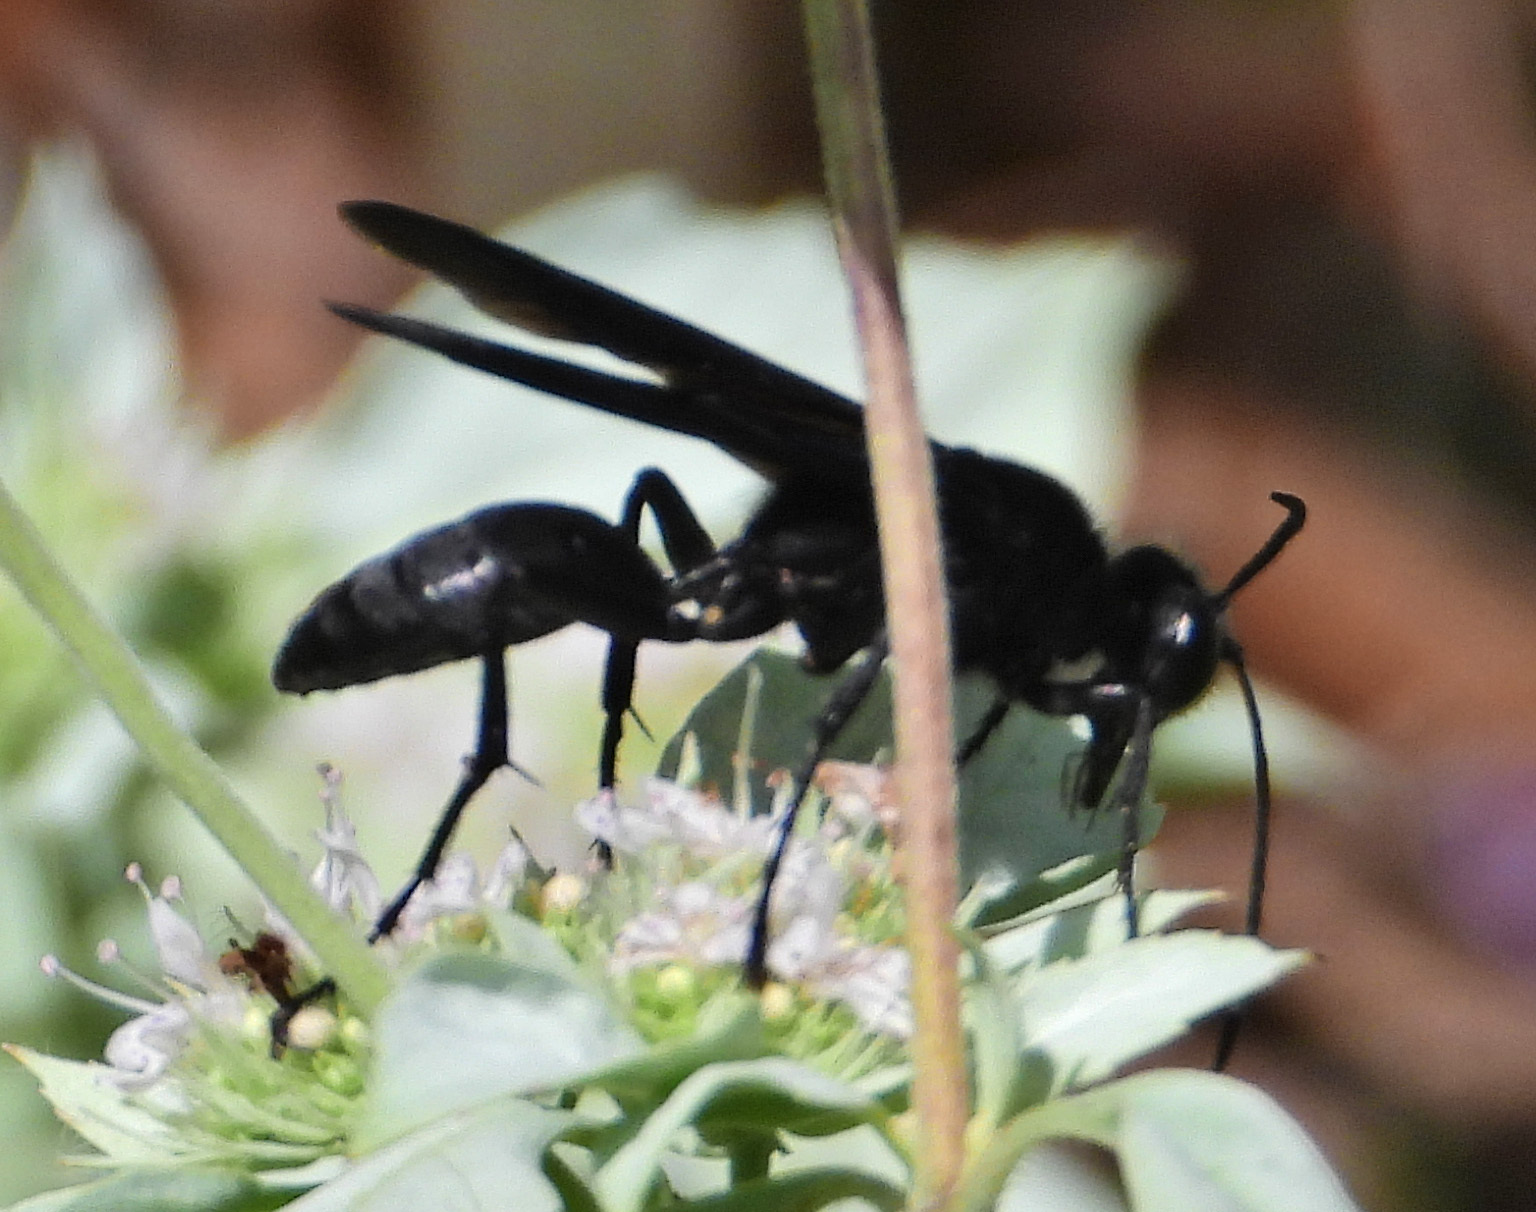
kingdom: Animalia
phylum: Arthropoda
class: Insecta
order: Hymenoptera
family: Sphecidae
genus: Sphex
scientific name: Sphex pensylvanicus
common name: Great black digger wasp
